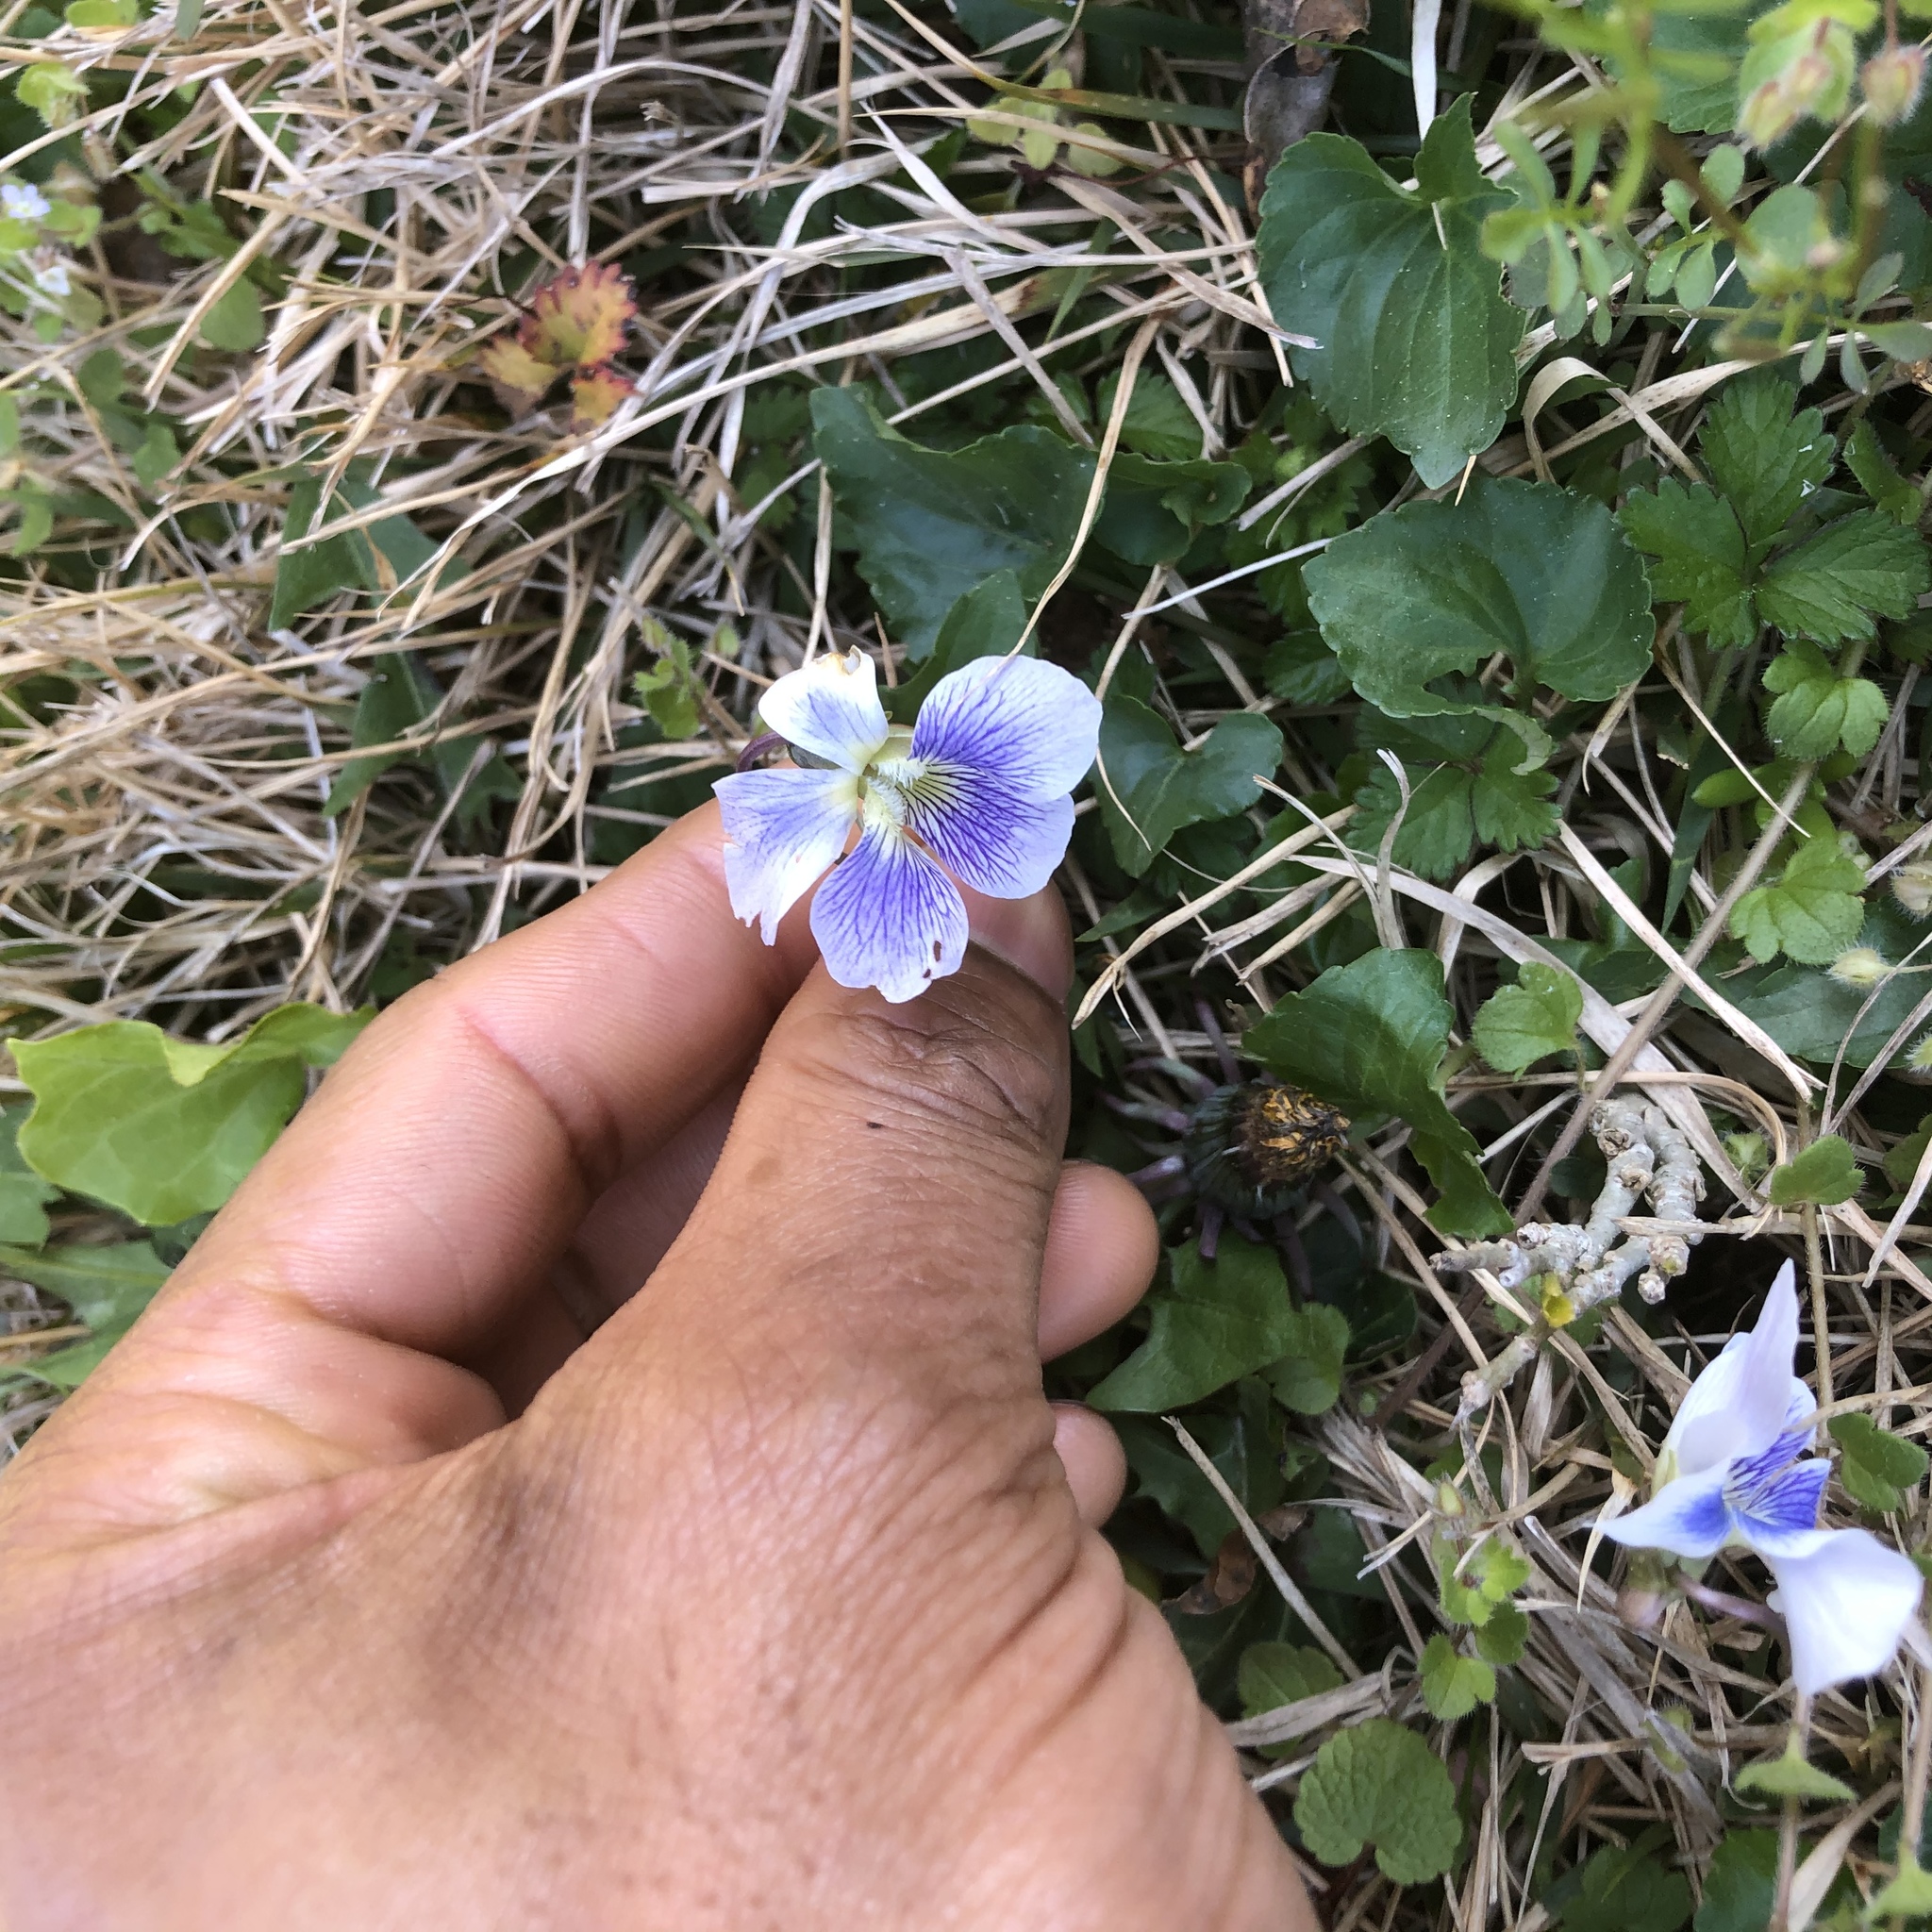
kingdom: Plantae
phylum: Tracheophyta
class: Magnoliopsida
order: Malpighiales
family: Violaceae
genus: Viola
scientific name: Viola sororia
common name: Dooryard violet
